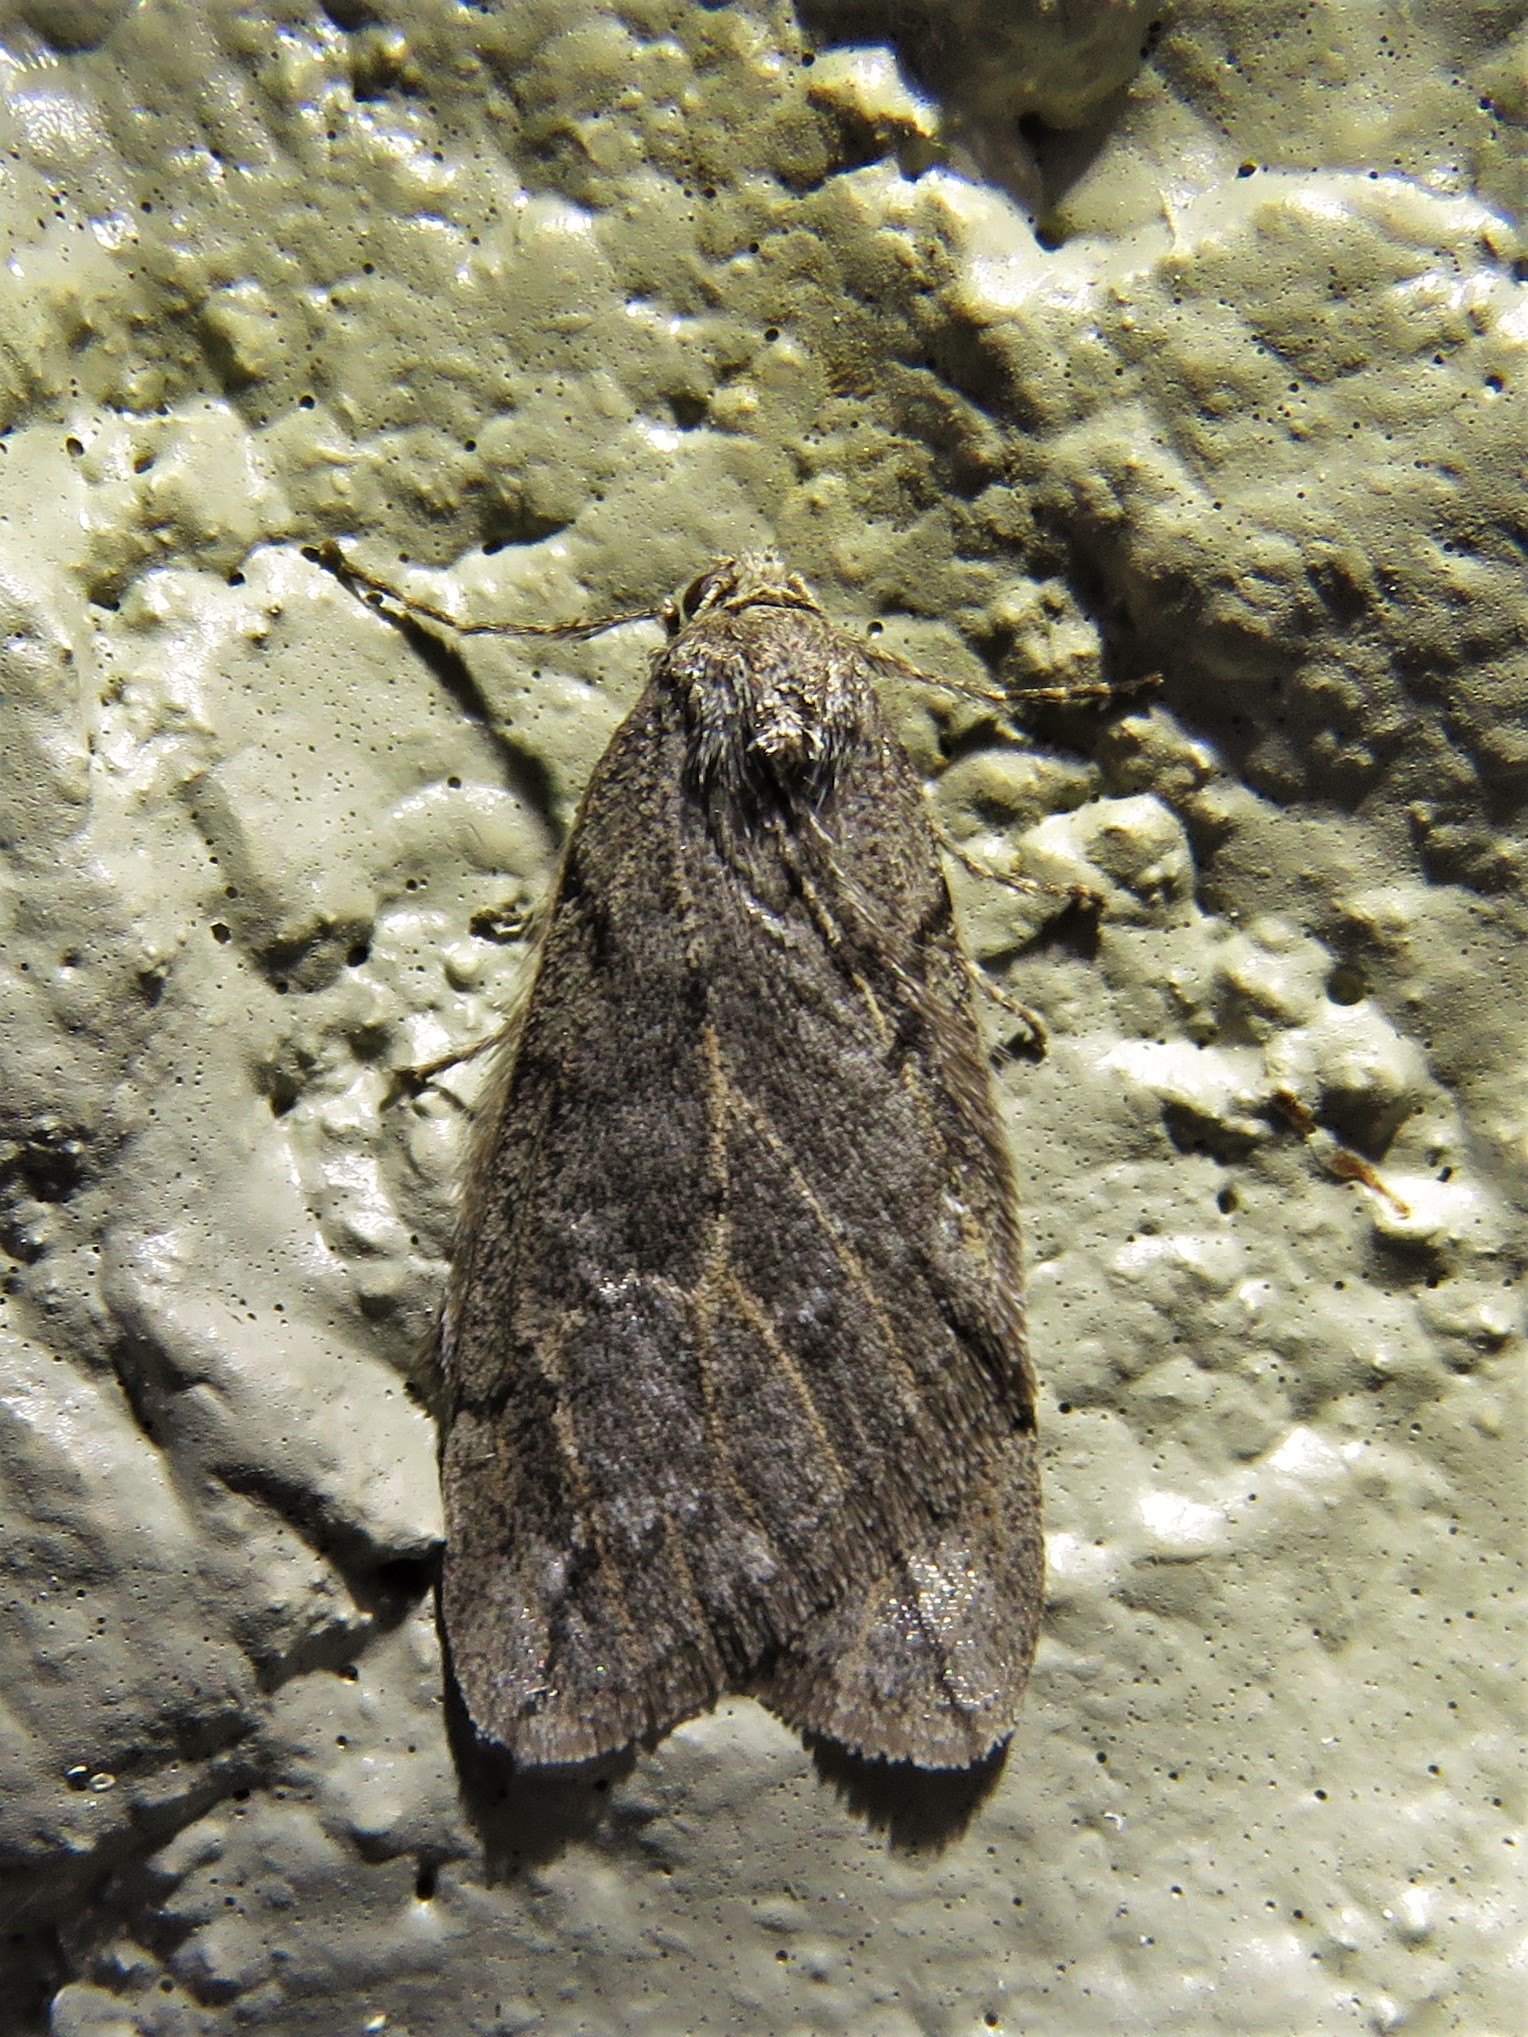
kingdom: Animalia
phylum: Arthropoda
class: Insecta
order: Lepidoptera
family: Geometridae
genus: Paleacrita
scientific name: Paleacrita vernata
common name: Spring cankerworm
